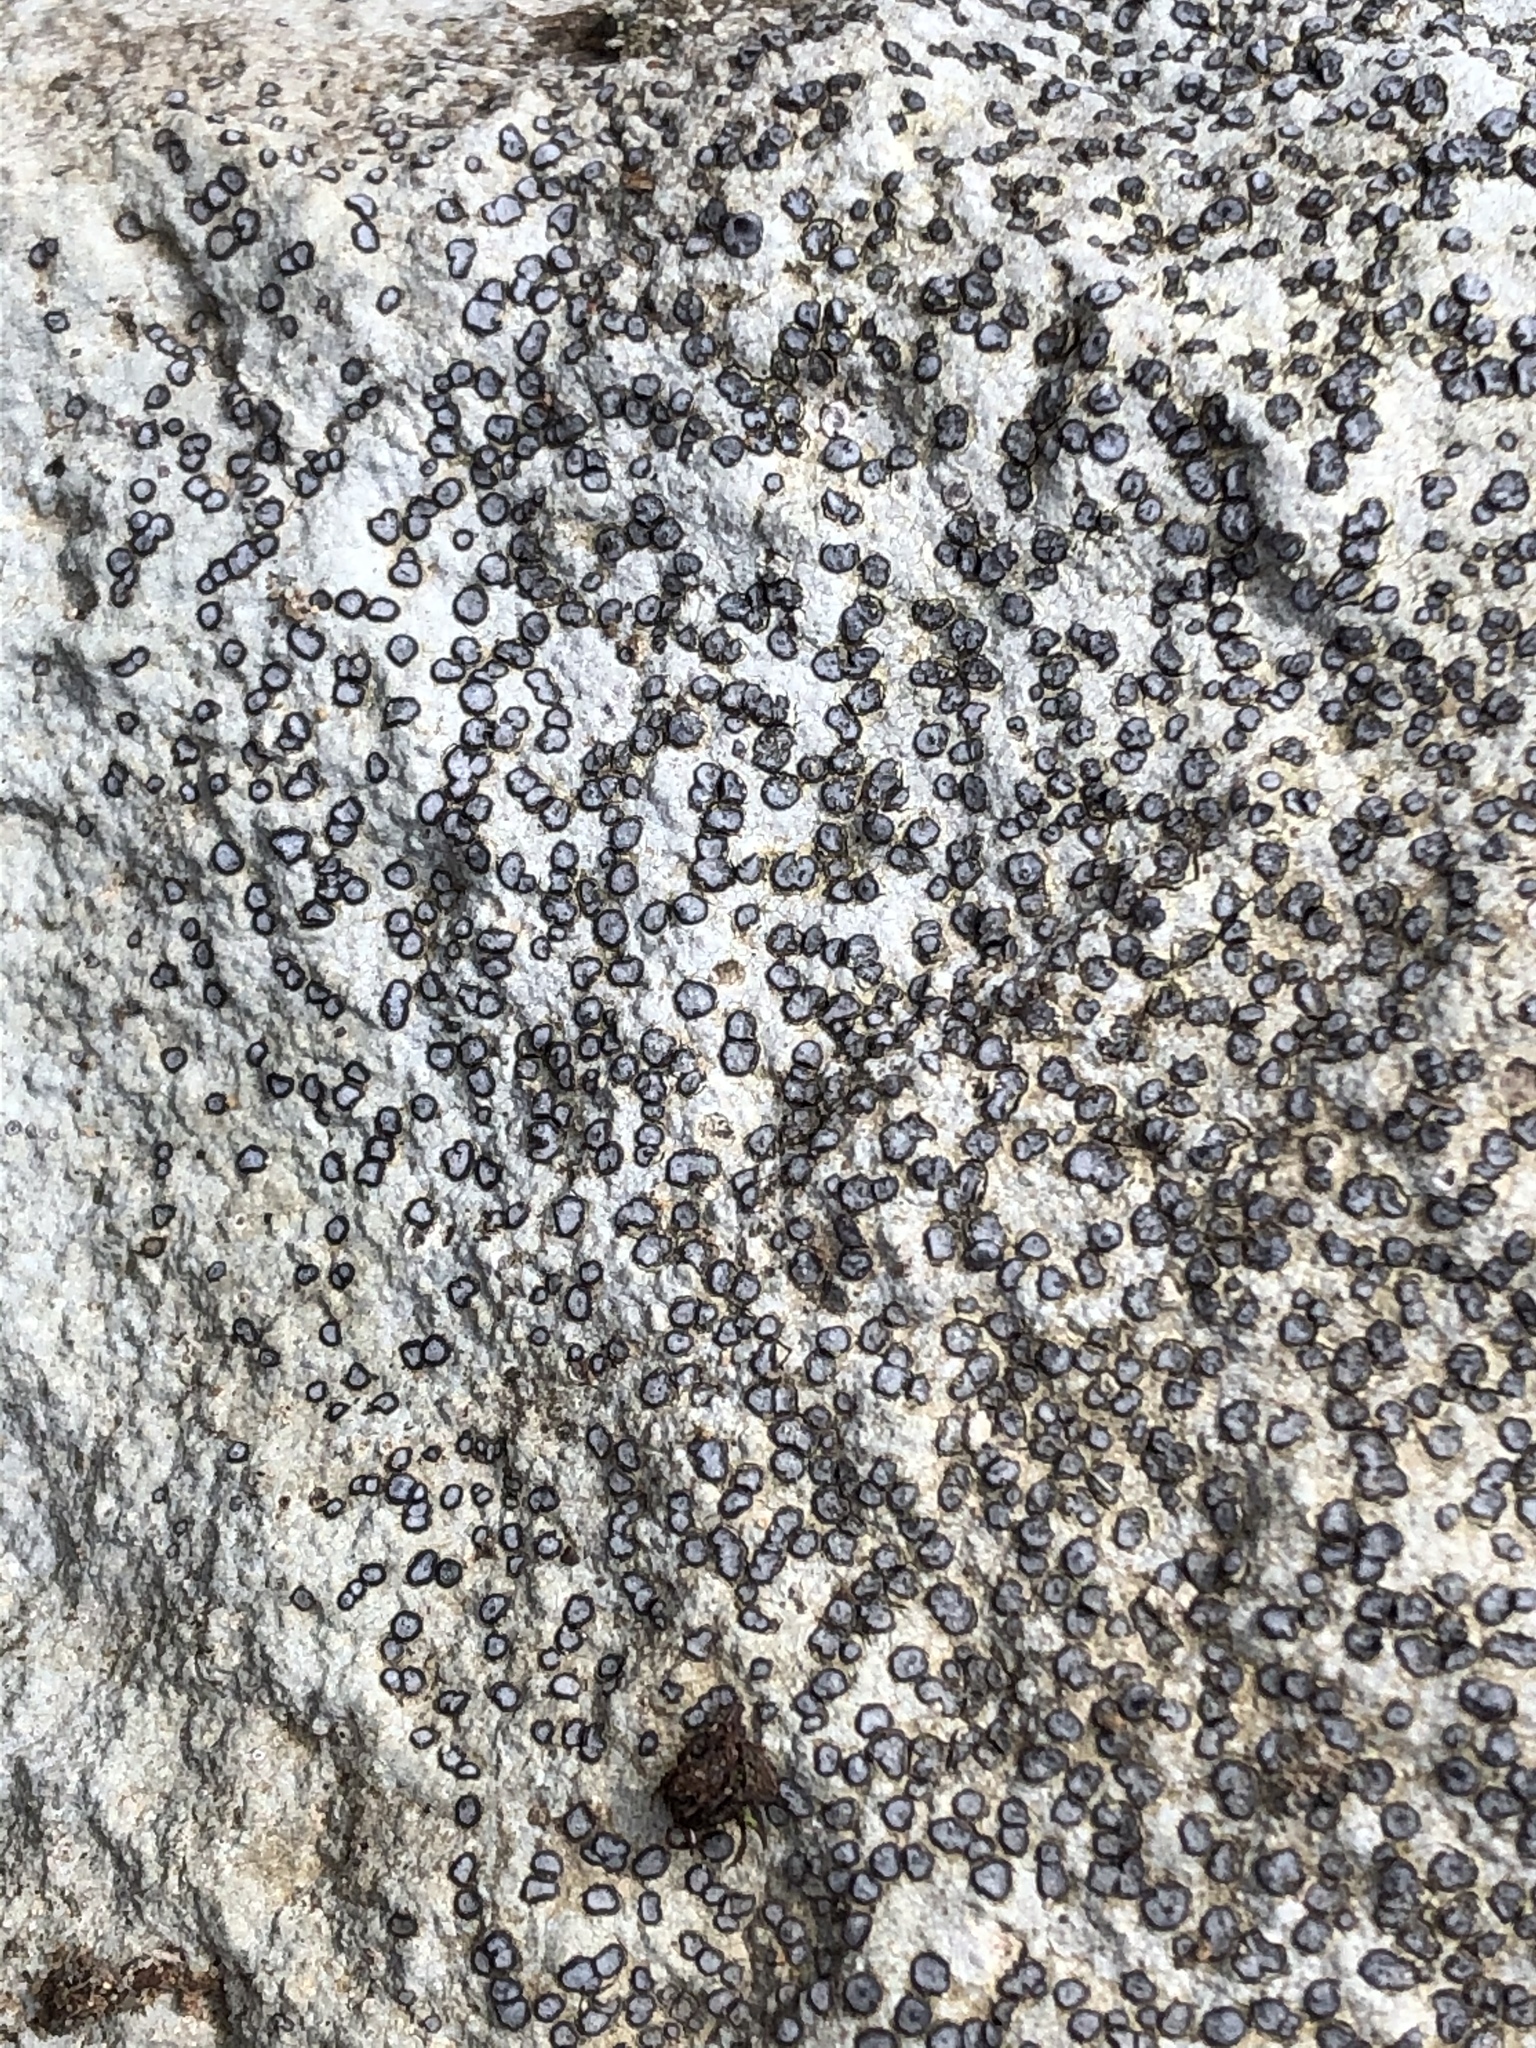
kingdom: Fungi
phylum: Ascomycota
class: Lecanoromycetes
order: Lecideales
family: Lecideaceae
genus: Porpidia
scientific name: Porpidia albocaerulescens
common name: Smokey-eyed boulder lichen
